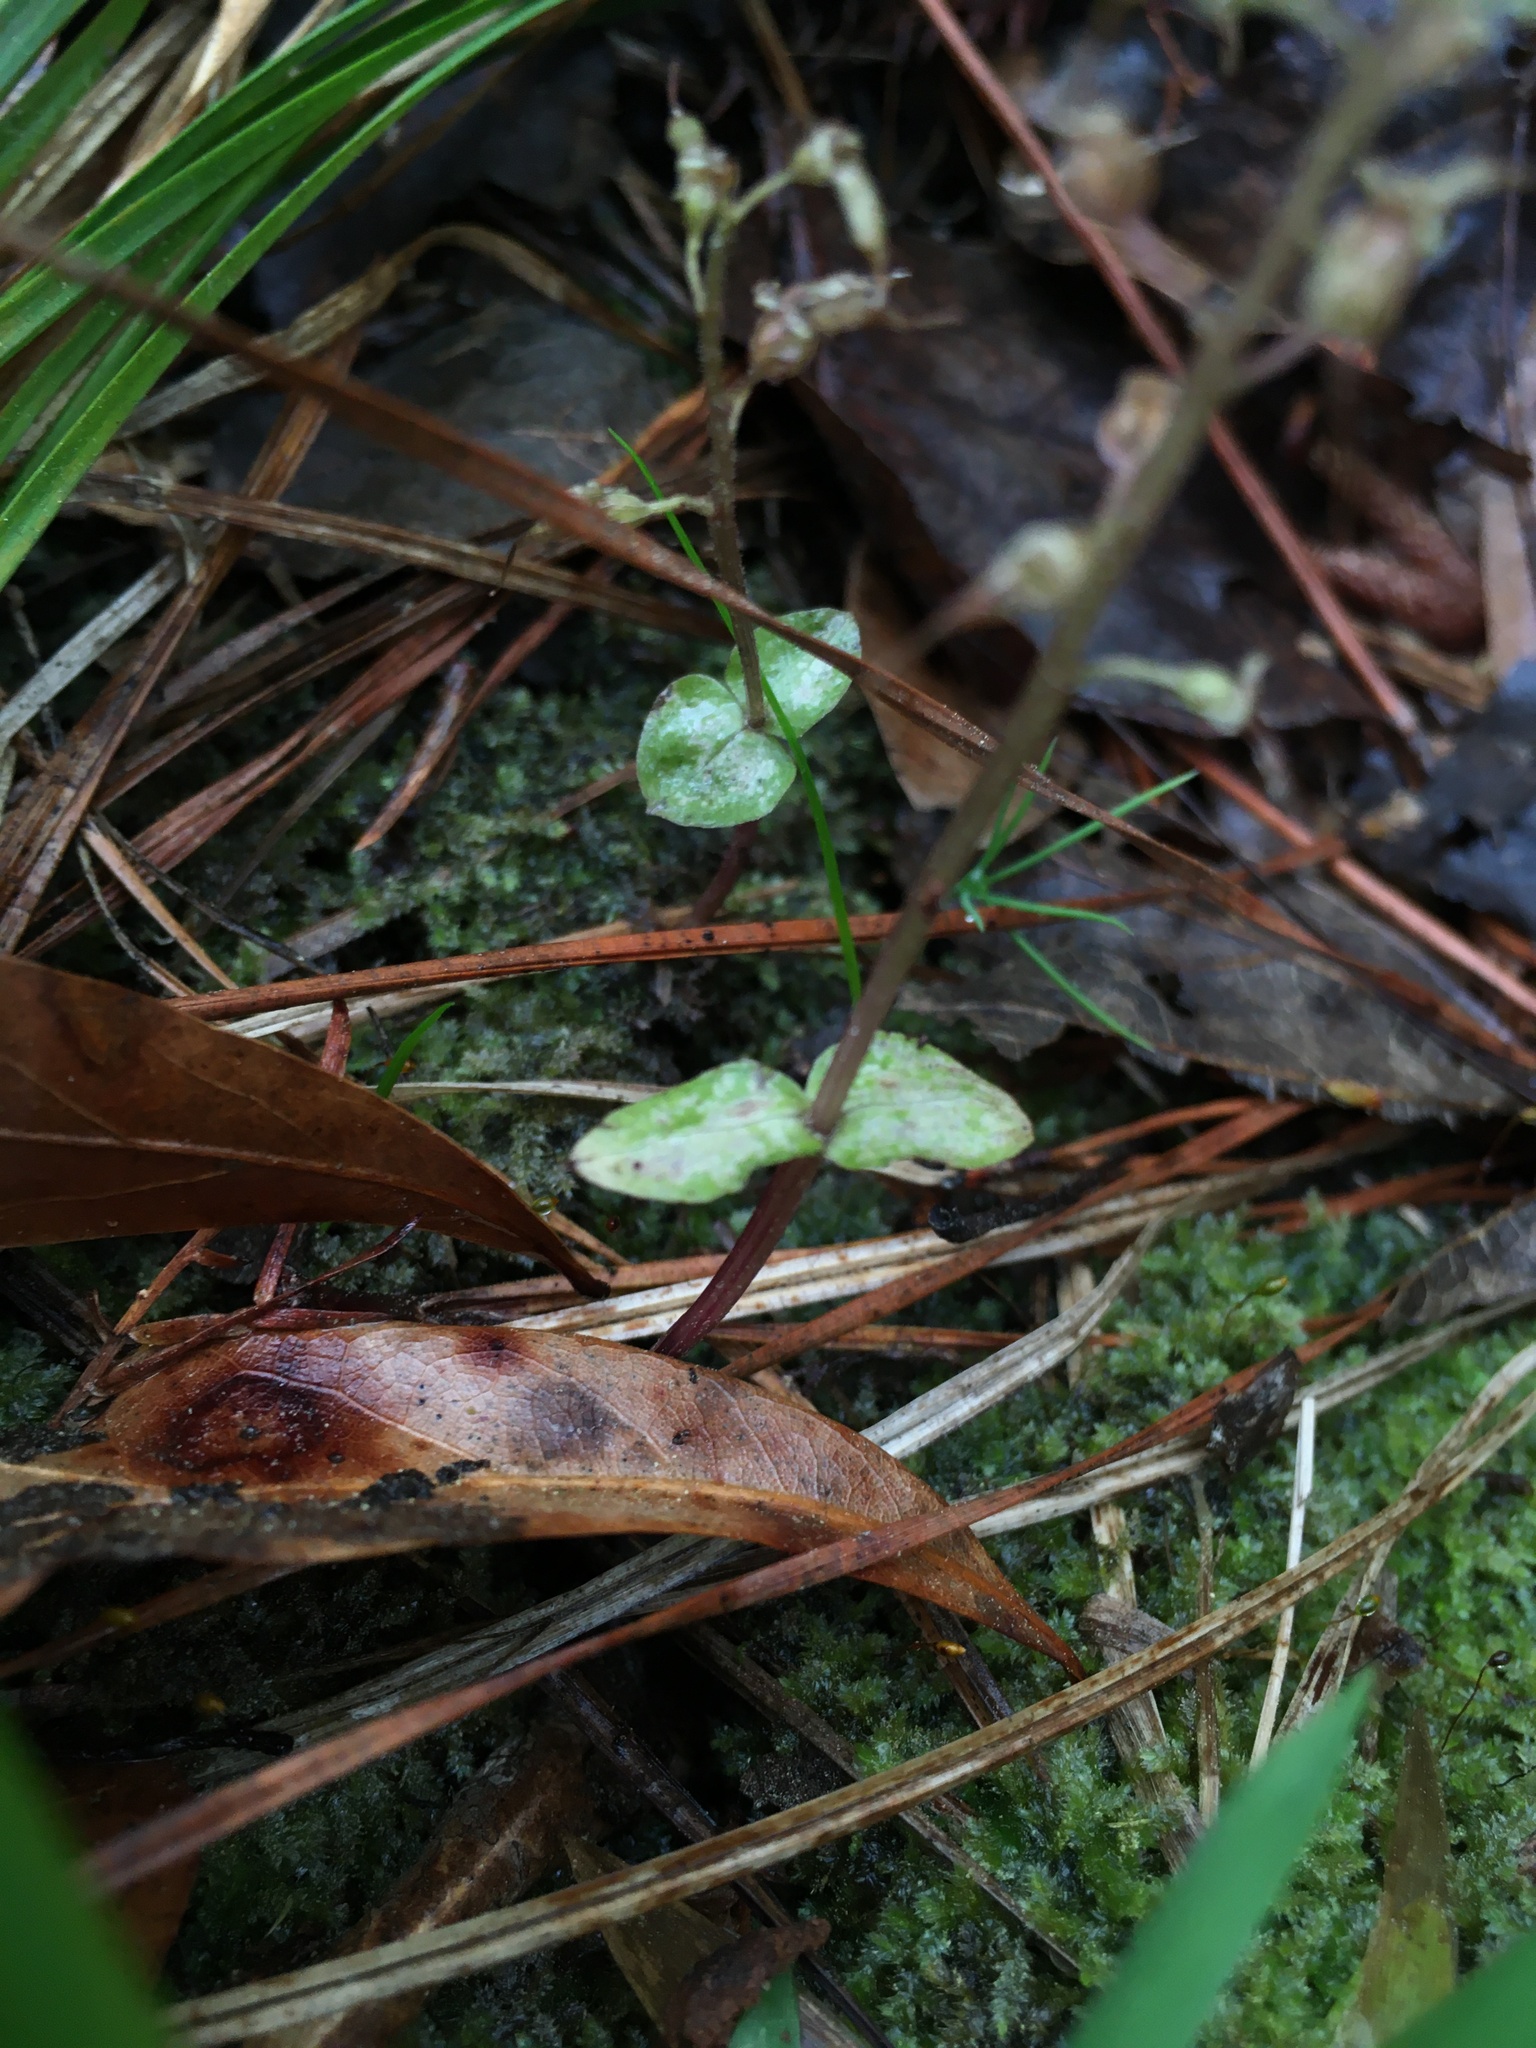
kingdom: Plantae
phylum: Tracheophyta
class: Liliopsida
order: Asparagales
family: Orchidaceae
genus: Neottia
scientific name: Neottia bifolia
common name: Southern twayblade
